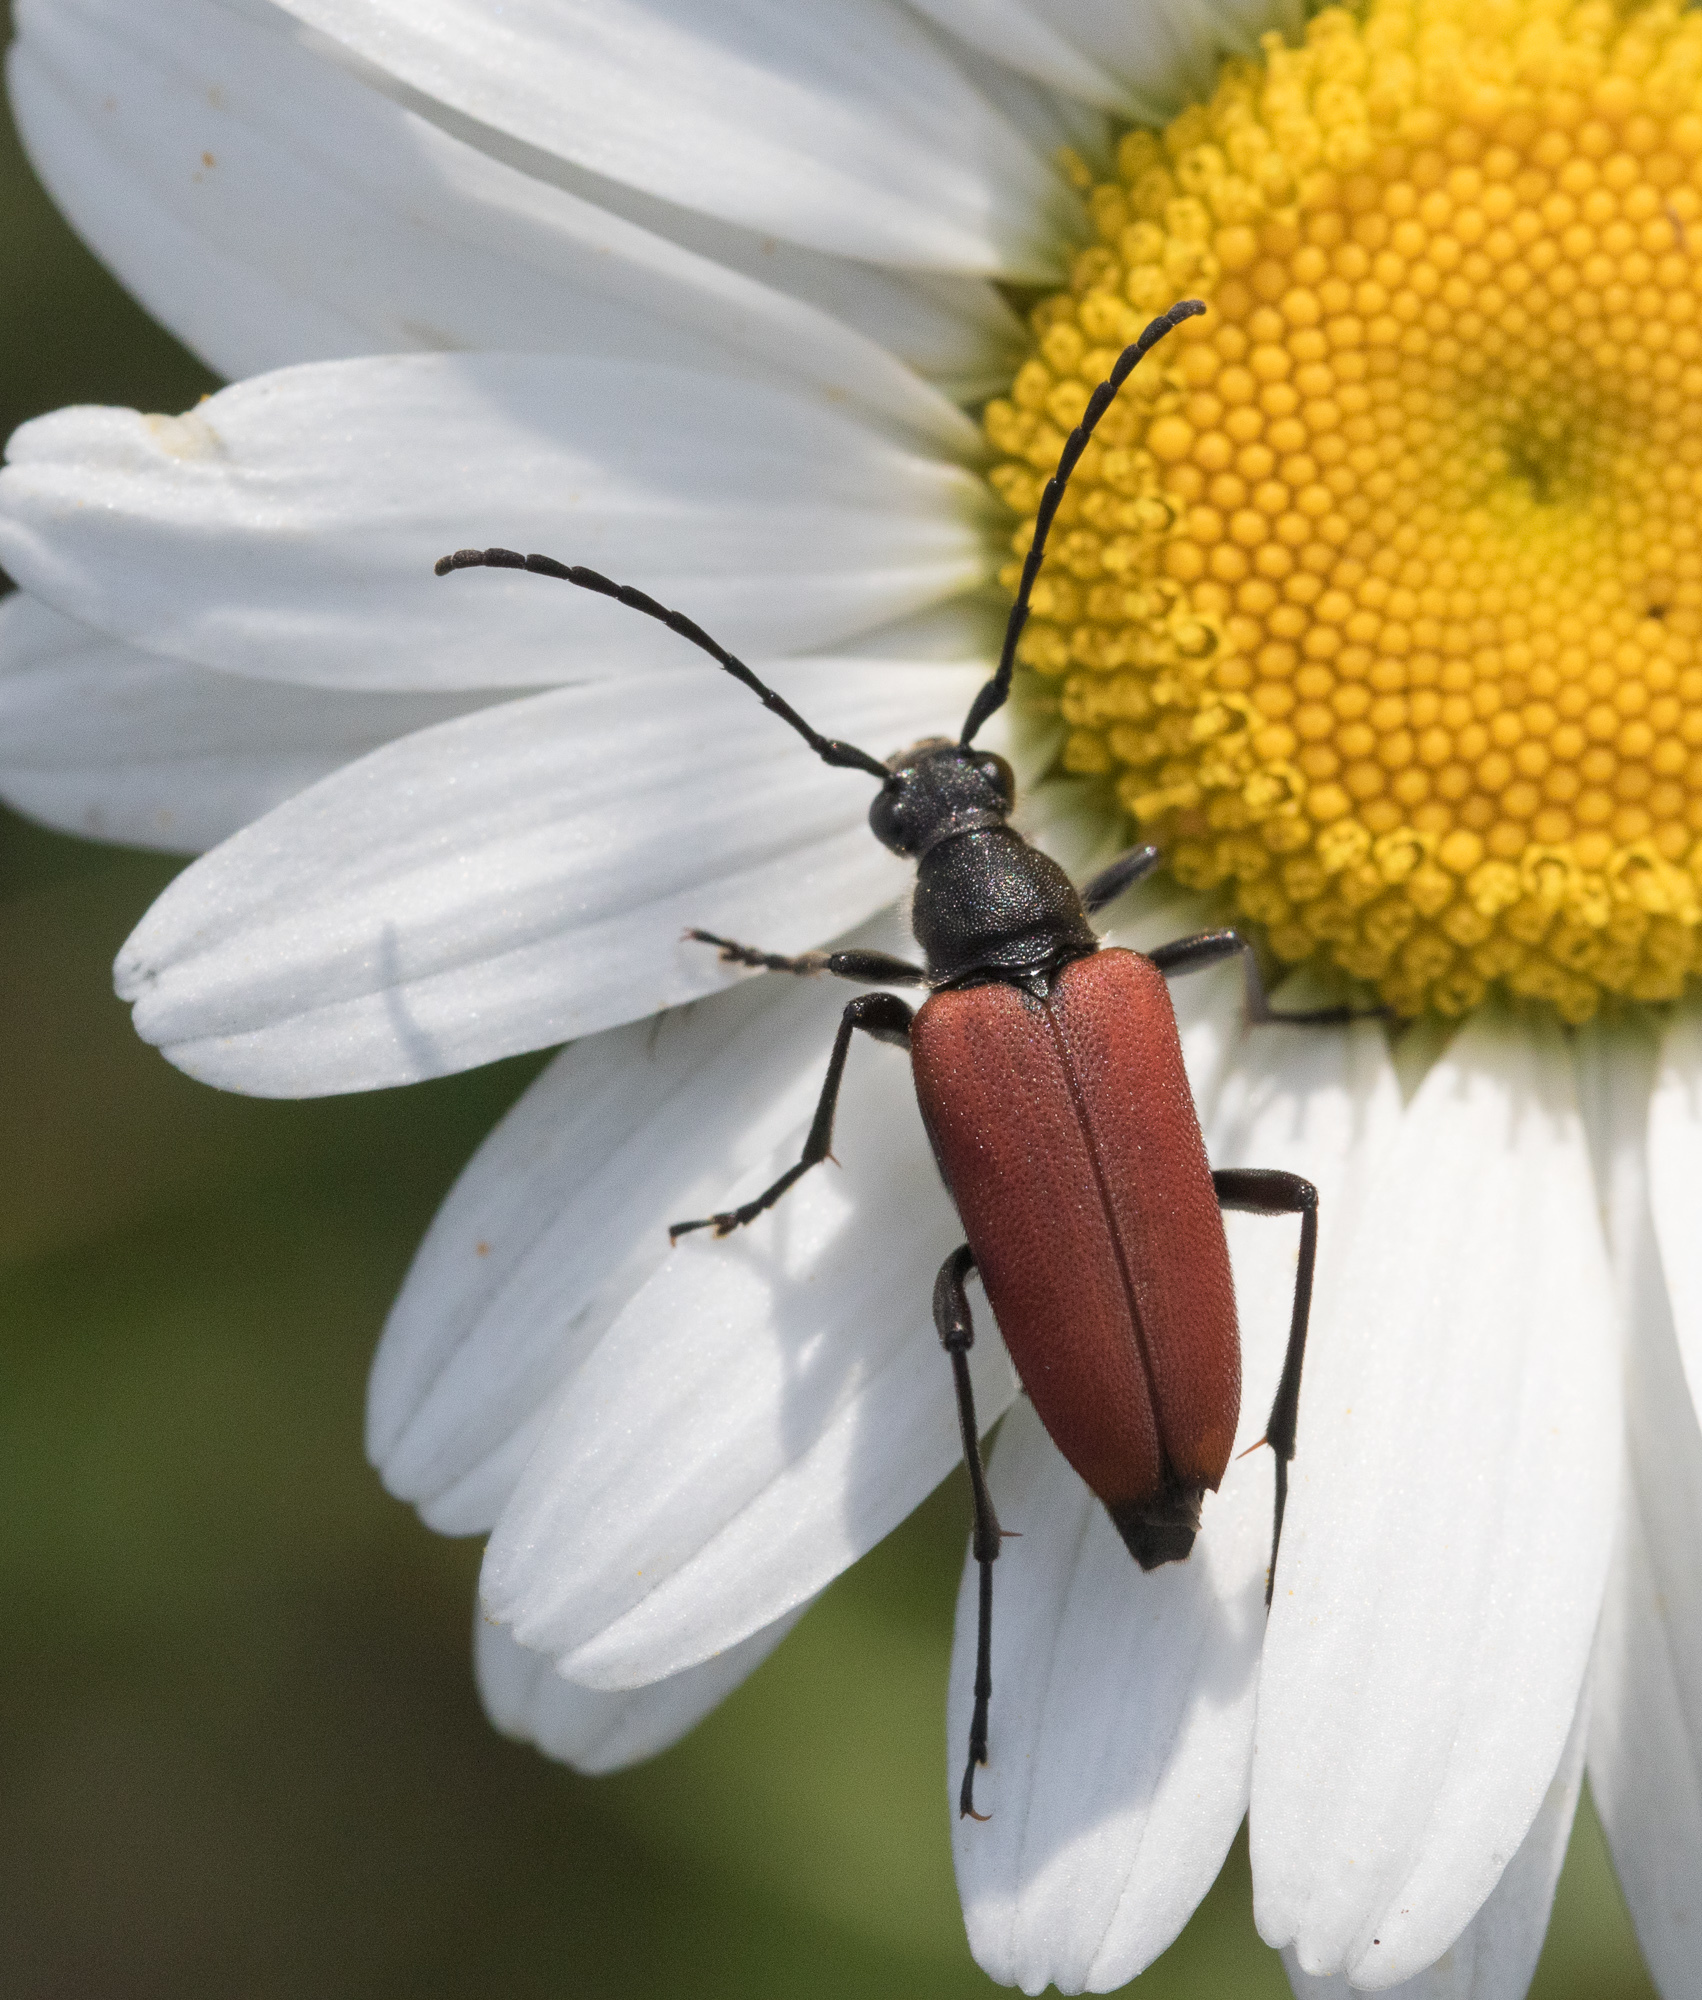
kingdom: Animalia
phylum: Arthropoda
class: Insecta
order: Coleoptera
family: Cerambycidae
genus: Anastrangalia
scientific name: Anastrangalia sanguinolenta
